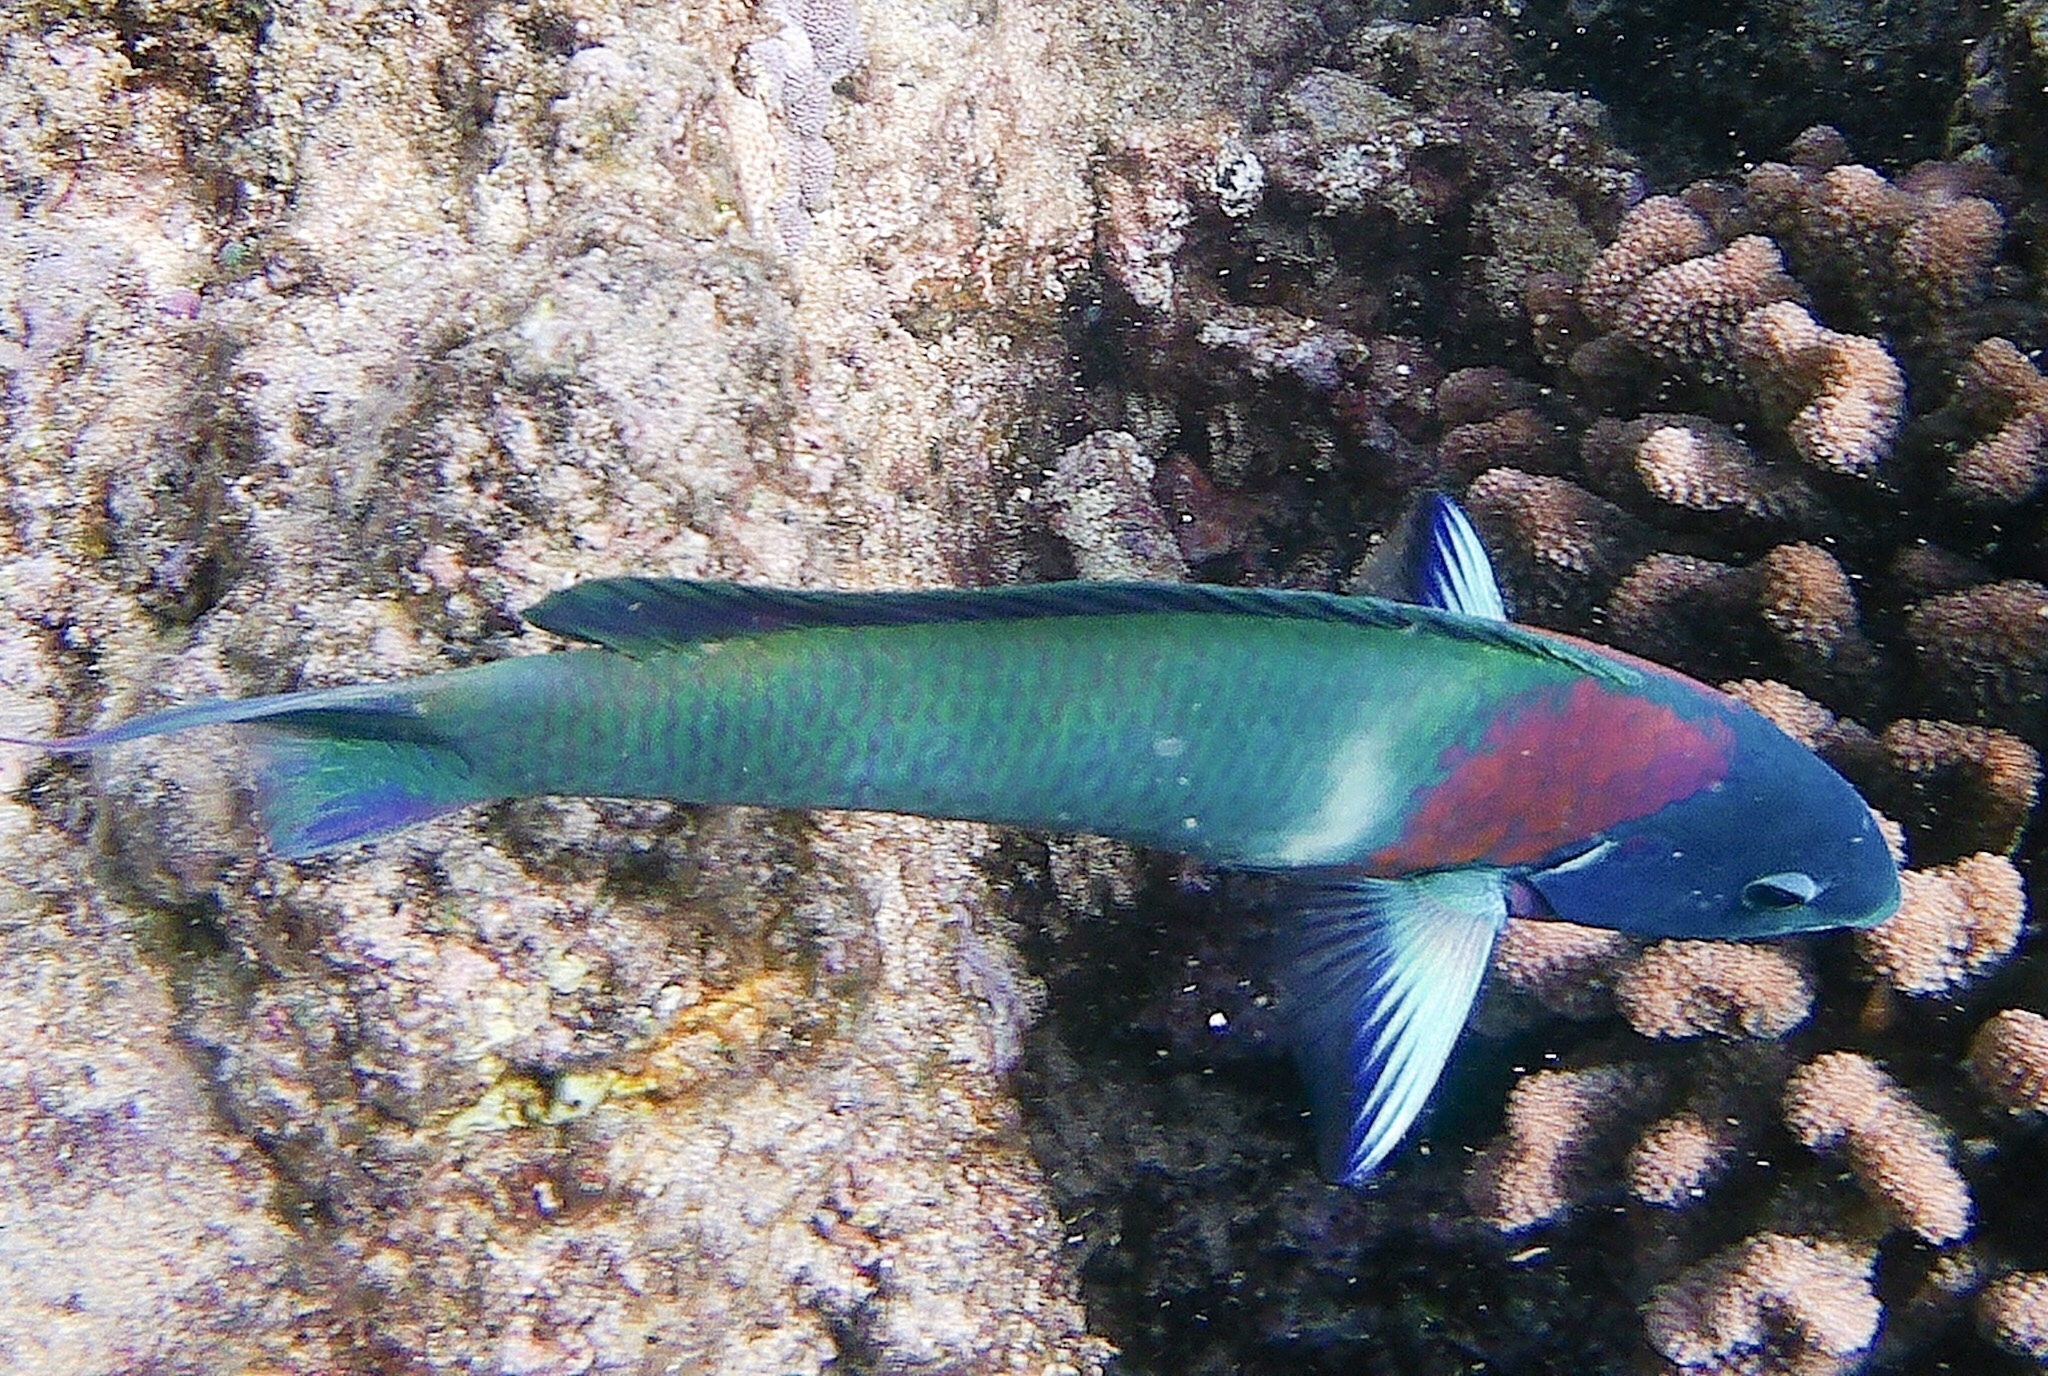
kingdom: Animalia
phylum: Chordata
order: Perciformes
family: Labridae
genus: Thalassoma
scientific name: Thalassoma duperrey
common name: Saddle wrasse
